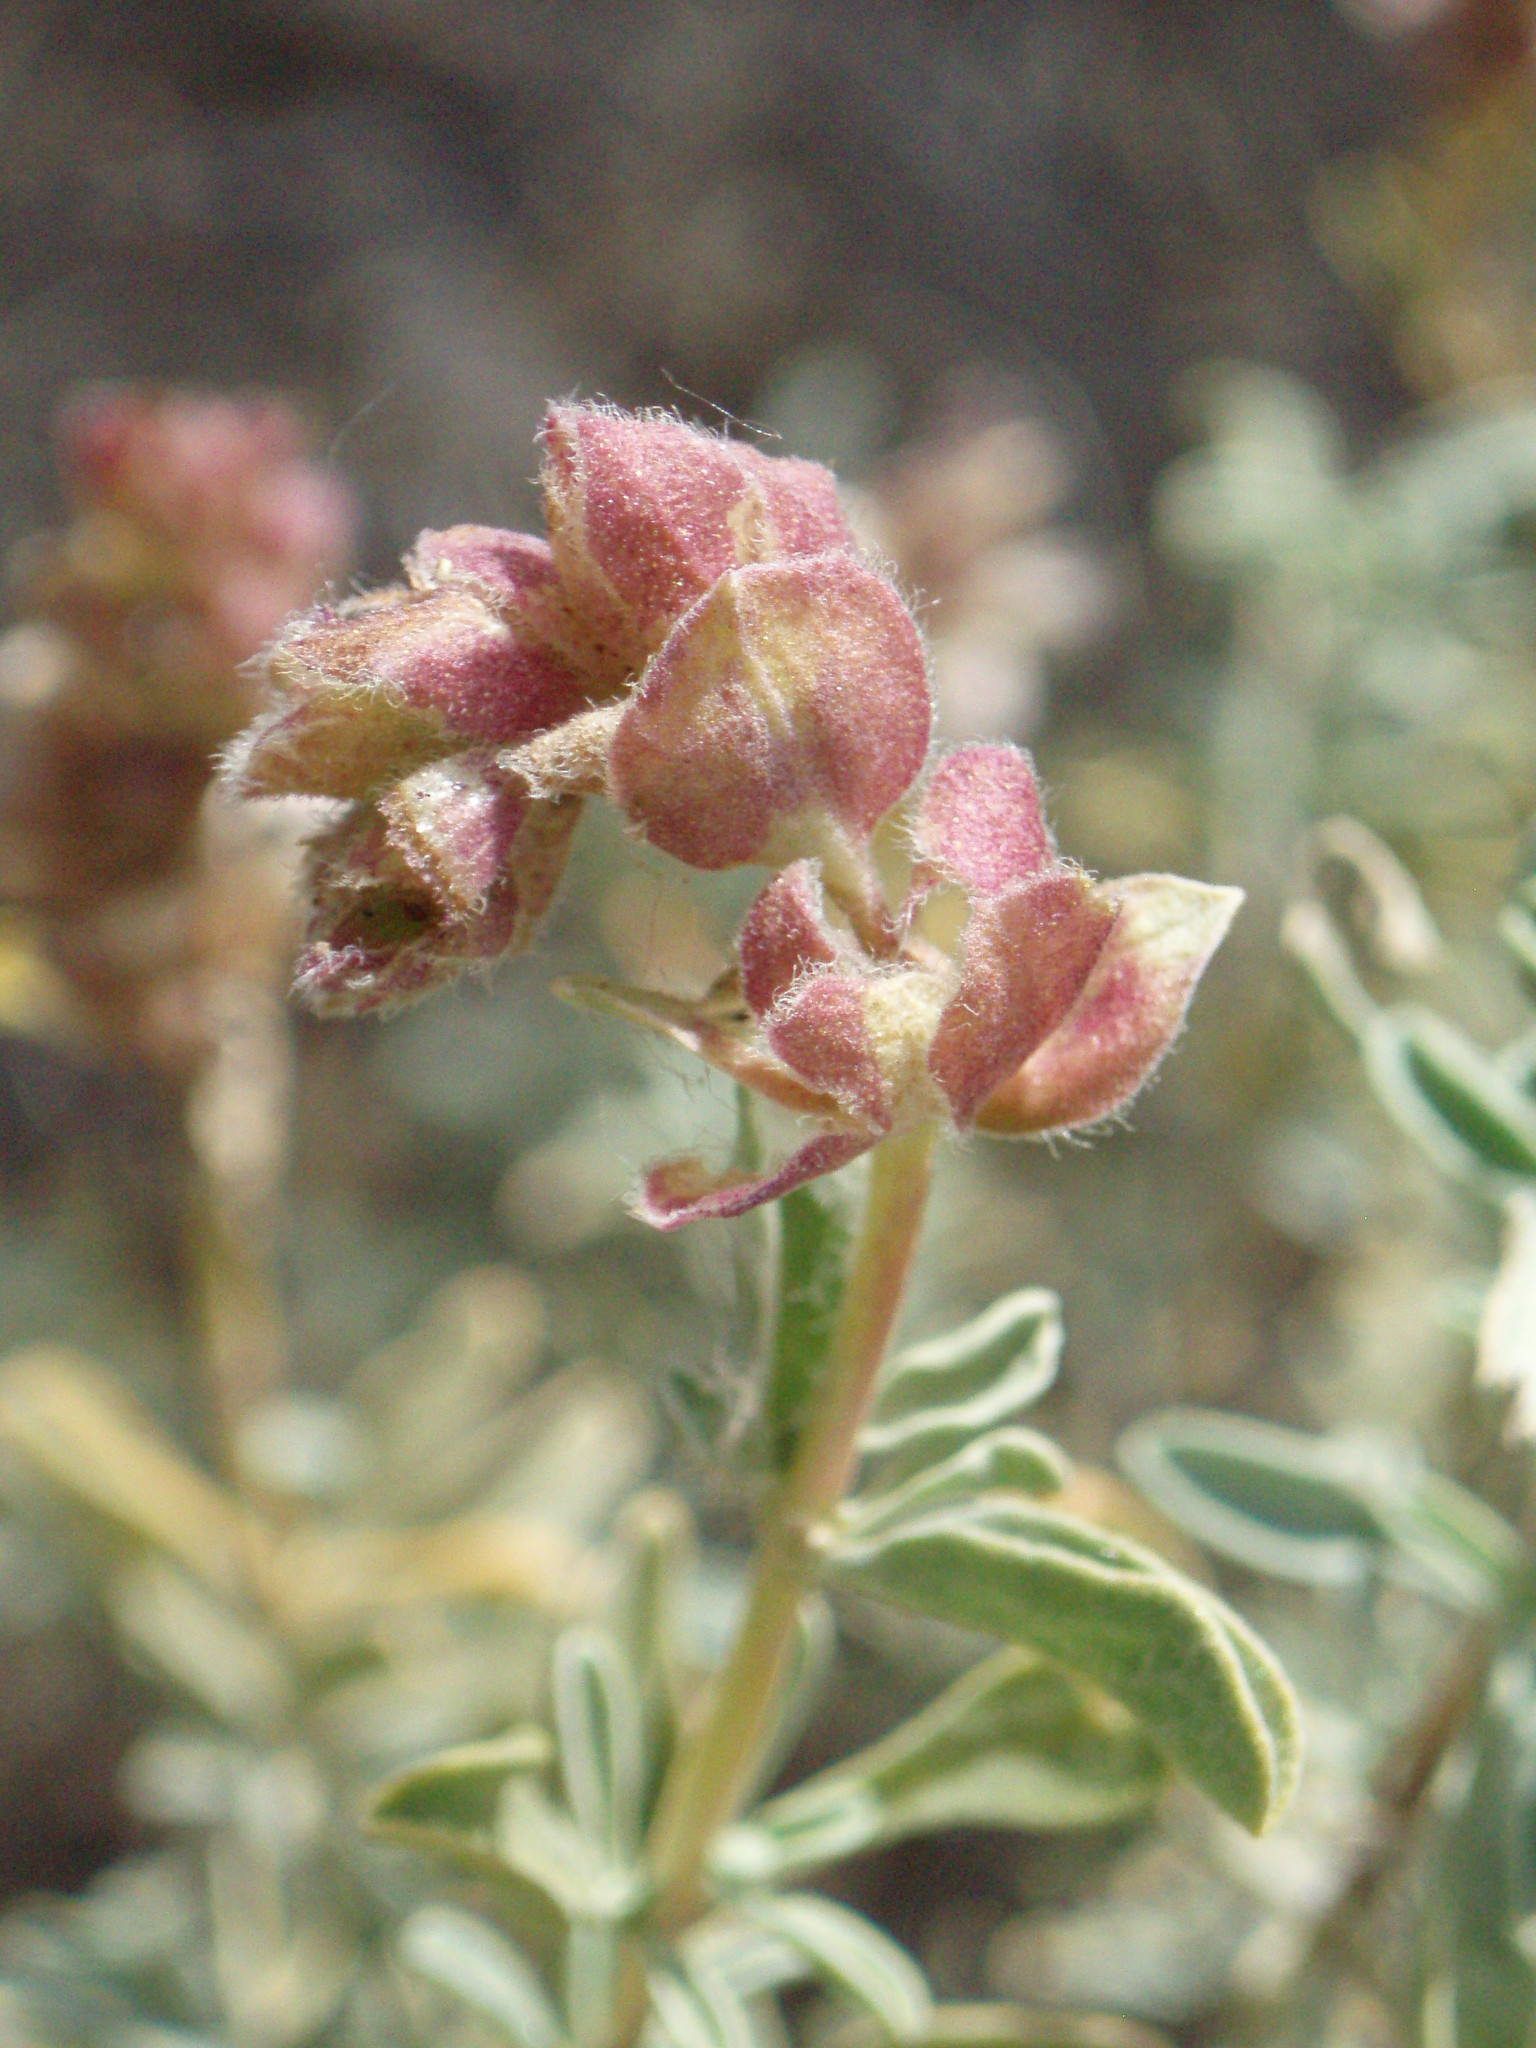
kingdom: Plantae
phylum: Tracheophyta
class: Magnoliopsida
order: Lamiales
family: Lamiaceae
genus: Salvia
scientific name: Salvia dorrii
